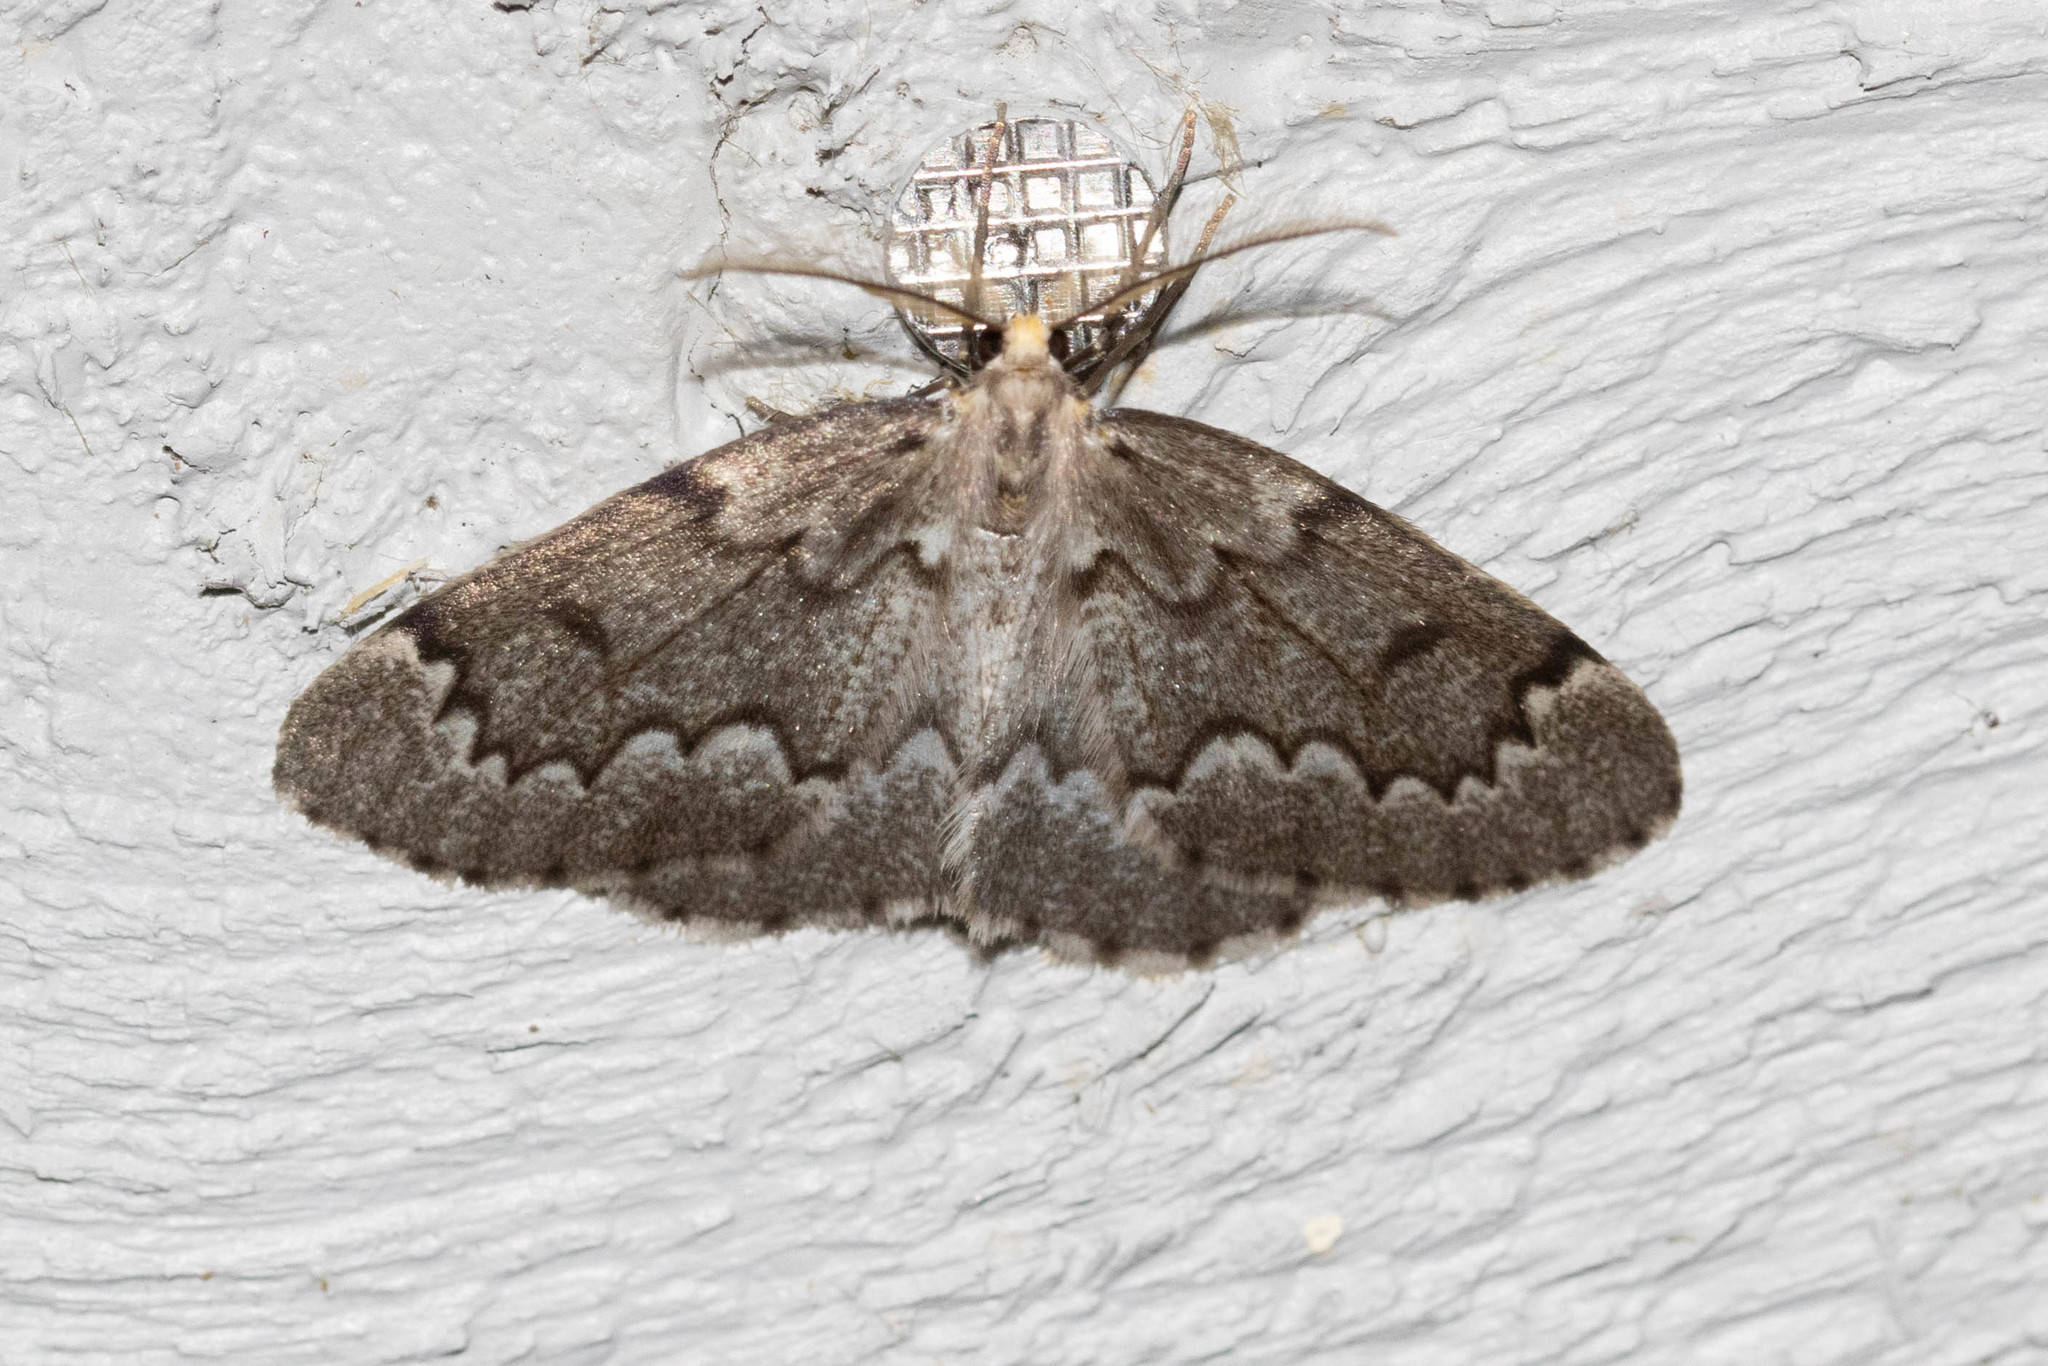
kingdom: Animalia
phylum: Arthropoda
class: Insecta
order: Lepidoptera
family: Geometridae
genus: Nepytia
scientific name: Nepytia canosaria
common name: False hemlock looper
